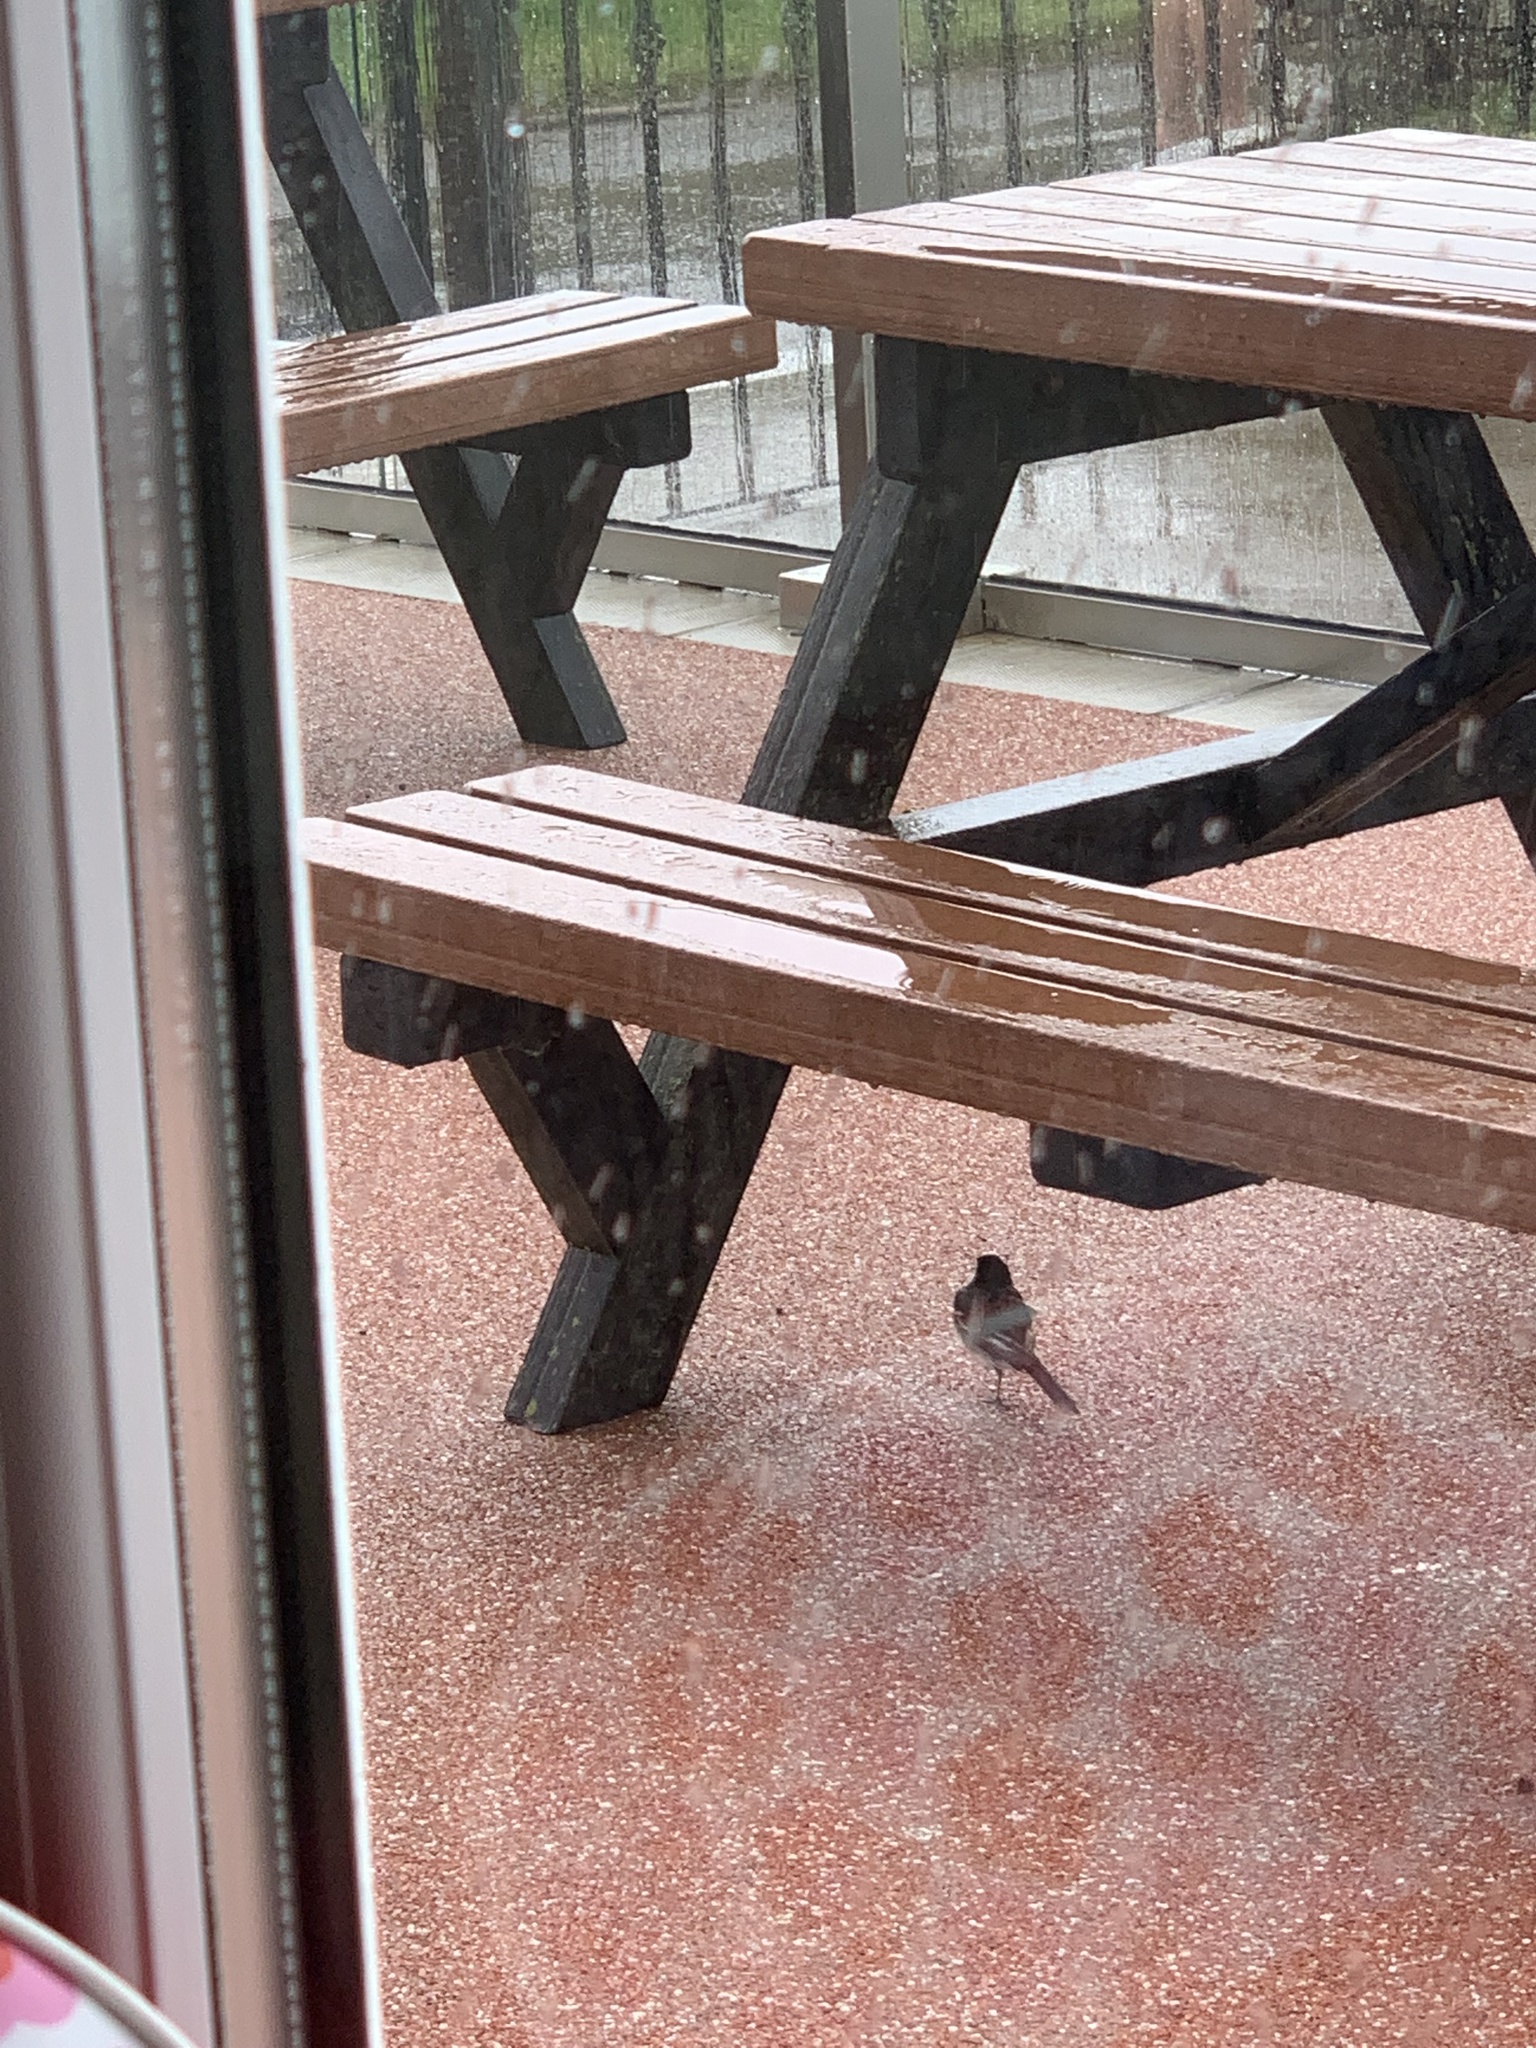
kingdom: Animalia
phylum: Chordata
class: Aves
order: Passeriformes
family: Motacillidae
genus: Motacilla
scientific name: Motacilla alba
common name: White wagtail
